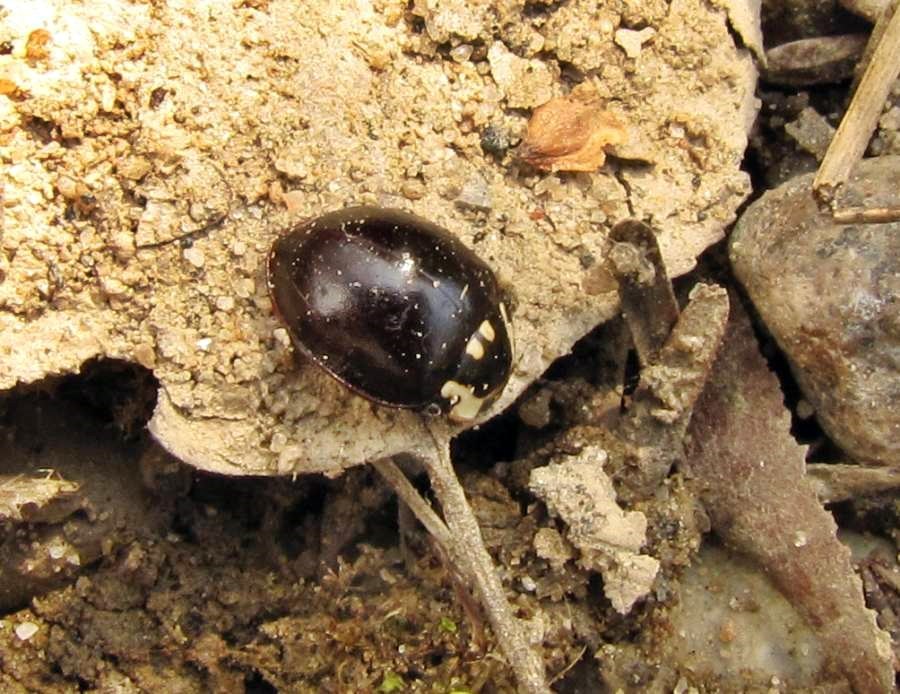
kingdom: Animalia
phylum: Arthropoda
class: Insecta
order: Coleoptera
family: Coccinellidae
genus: Anatis
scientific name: Anatis labiculata
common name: Fifteen-spotted lady beetle
